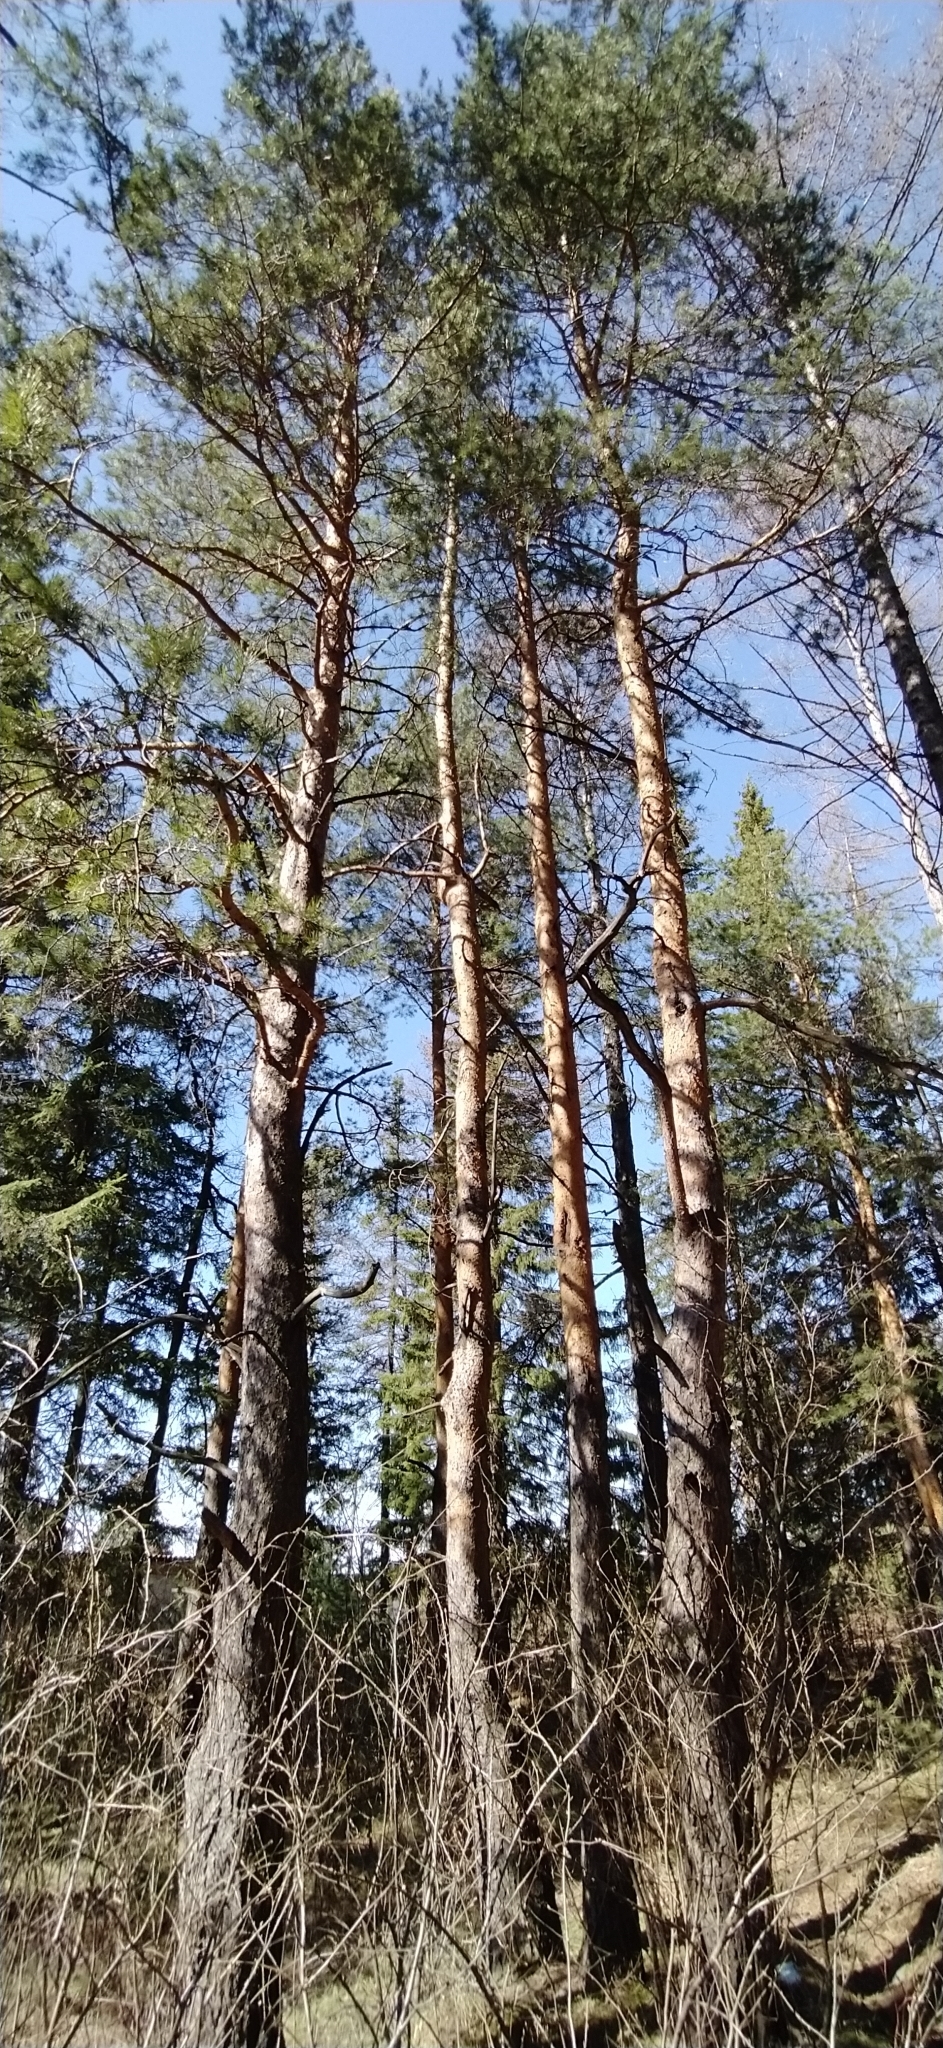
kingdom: Plantae
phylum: Tracheophyta
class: Pinopsida
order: Pinales
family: Pinaceae
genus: Pinus
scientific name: Pinus sylvestris
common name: Scots pine
